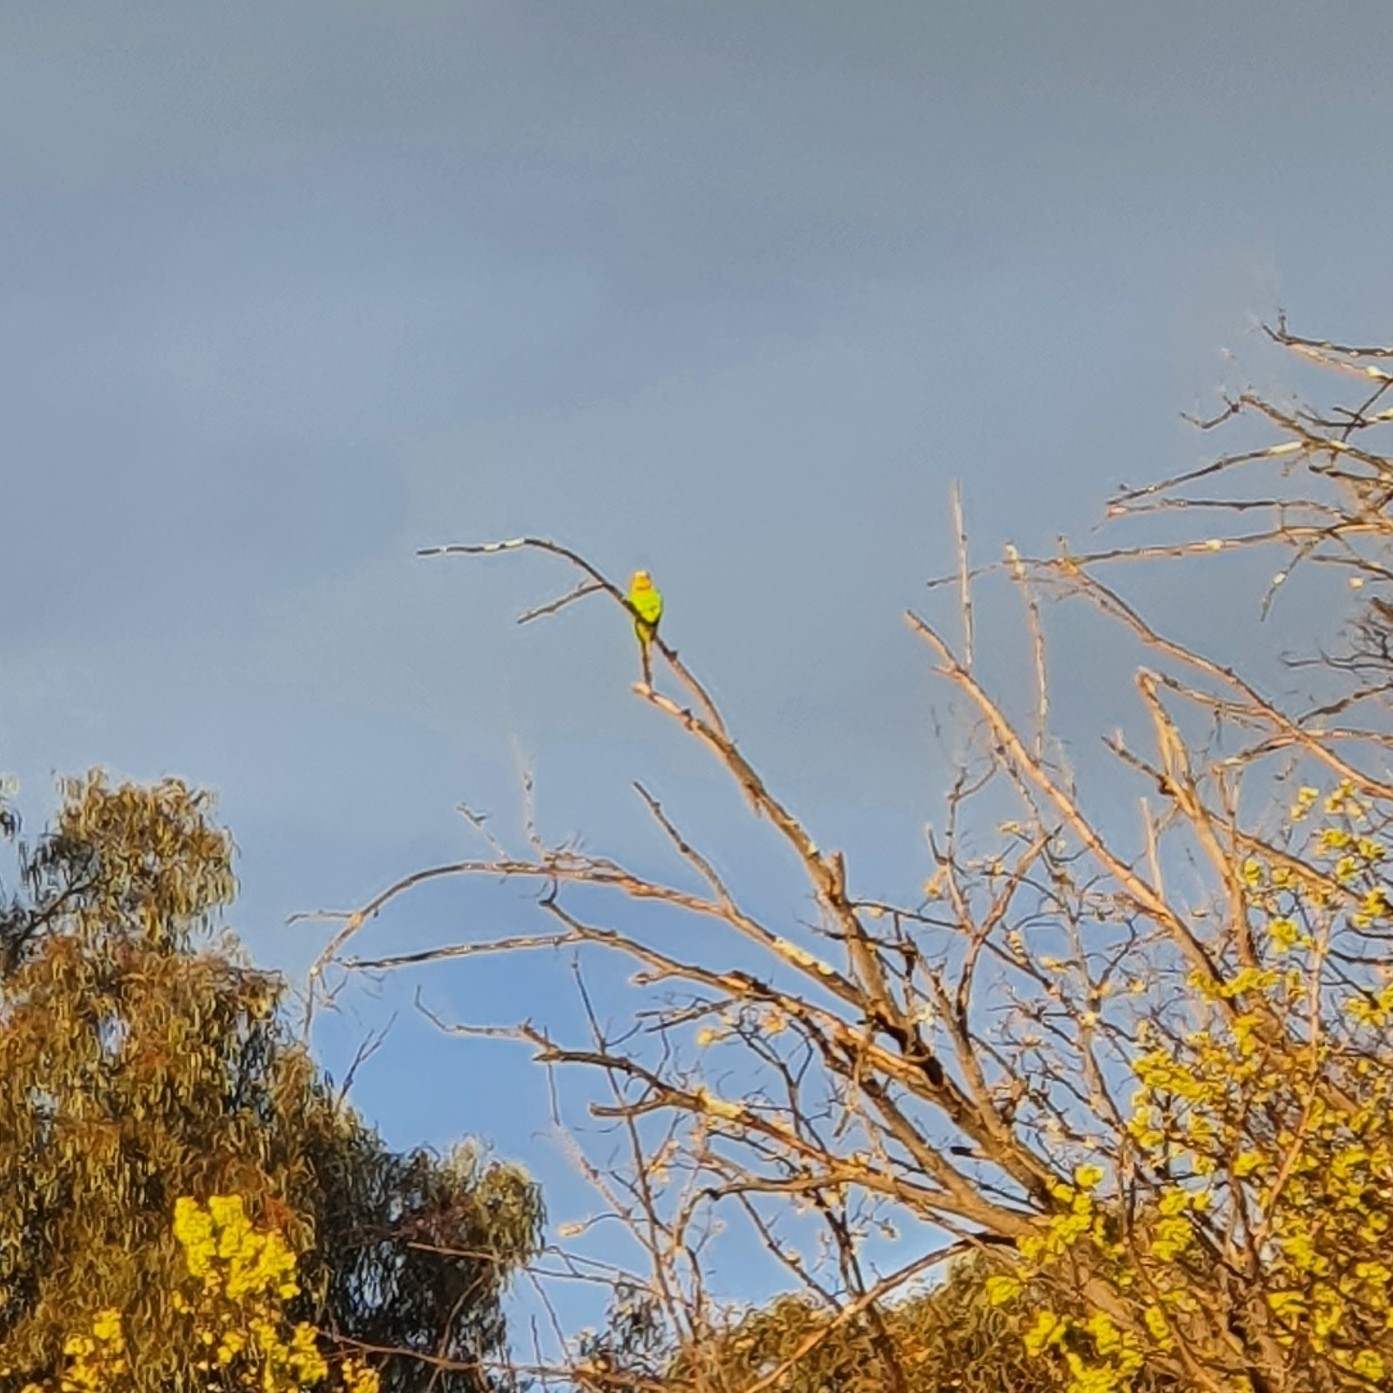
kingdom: Animalia
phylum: Chordata
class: Aves
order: Psittaciformes
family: Psittacidae
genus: Polytelis
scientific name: Polytelis swainsonii
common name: Superb parrot
